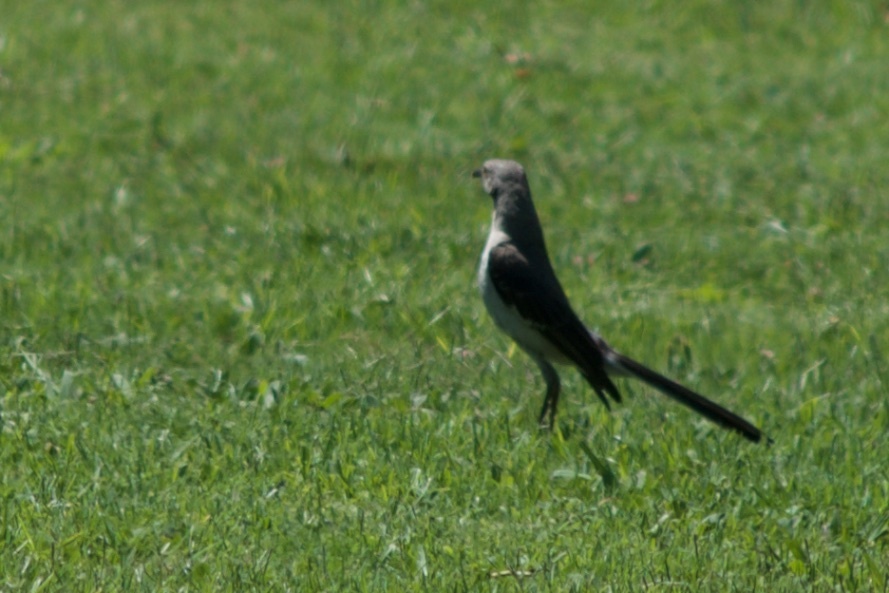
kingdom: Animalia
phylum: Chordata
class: Aves
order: Passeriformes
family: Mimidae
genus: Mimus
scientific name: Mimus polyglottos
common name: Northern mockingbird
